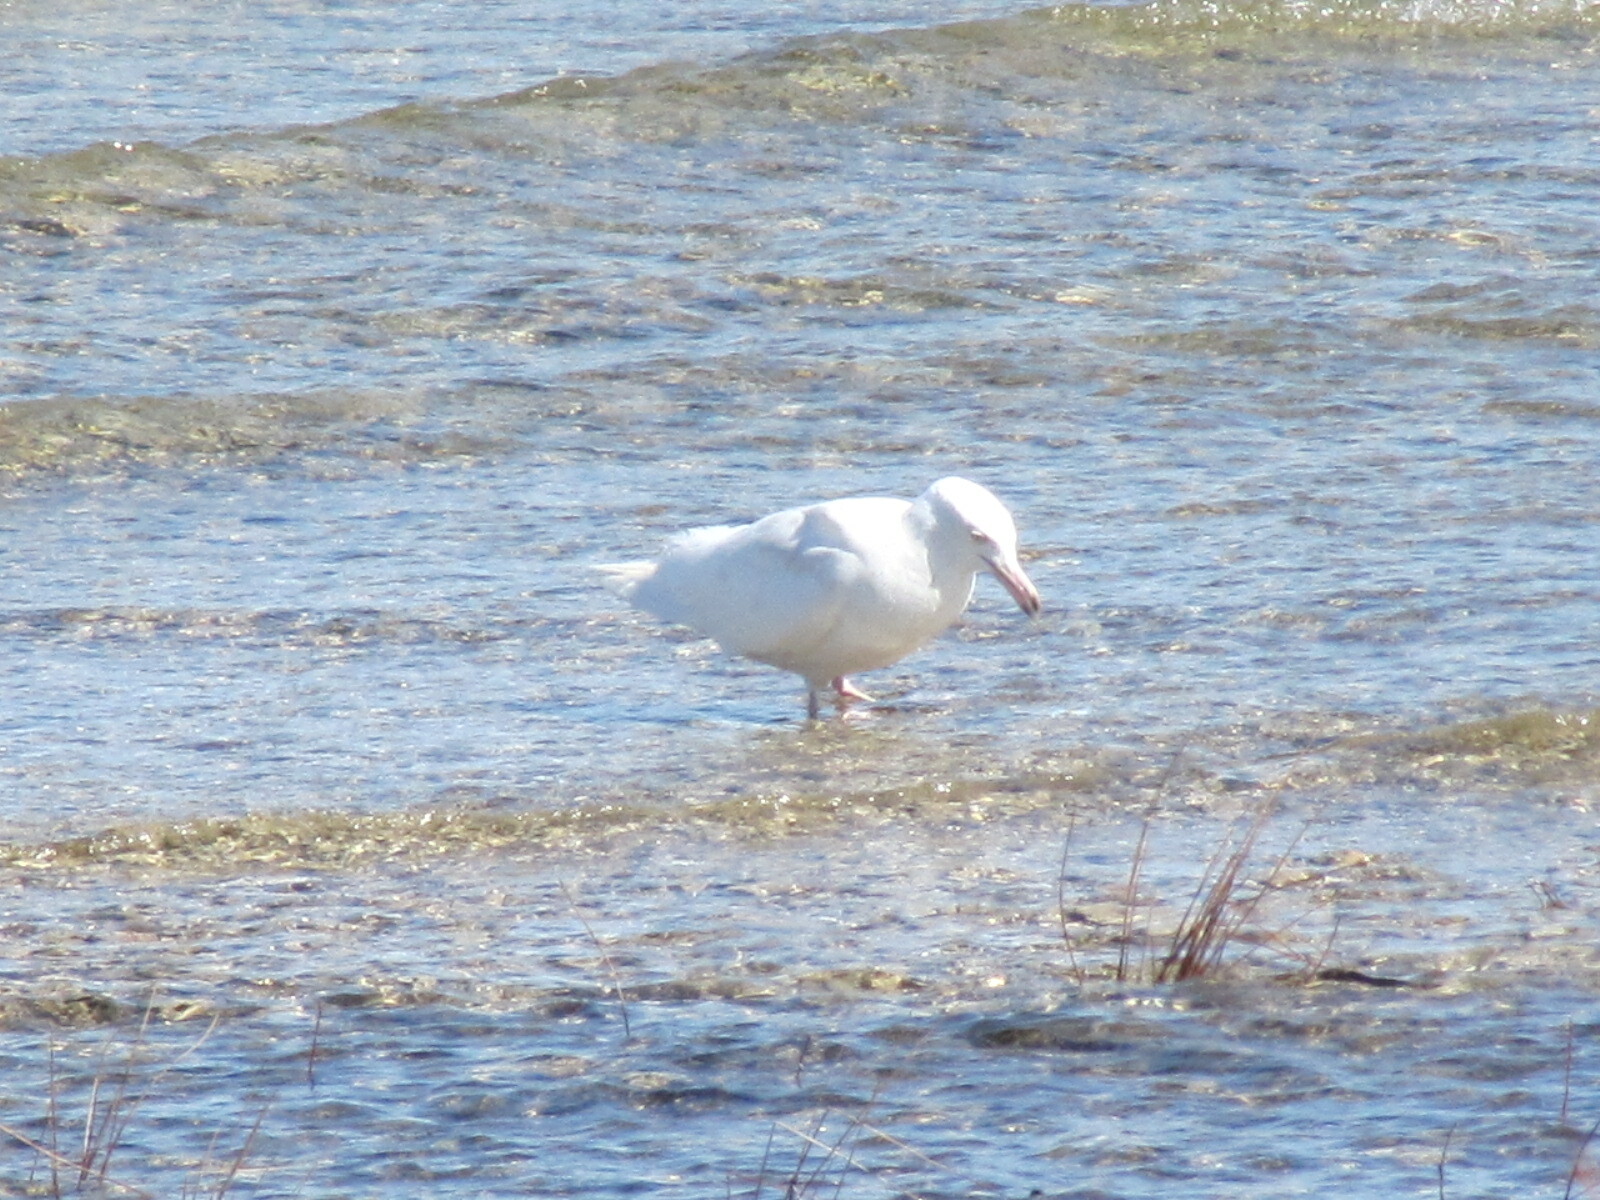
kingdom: Animalia
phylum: Chordata
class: Aves
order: Charadriiformes
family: Laridae
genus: Larus
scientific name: Larus hyperboreus
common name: Glaucous gull
